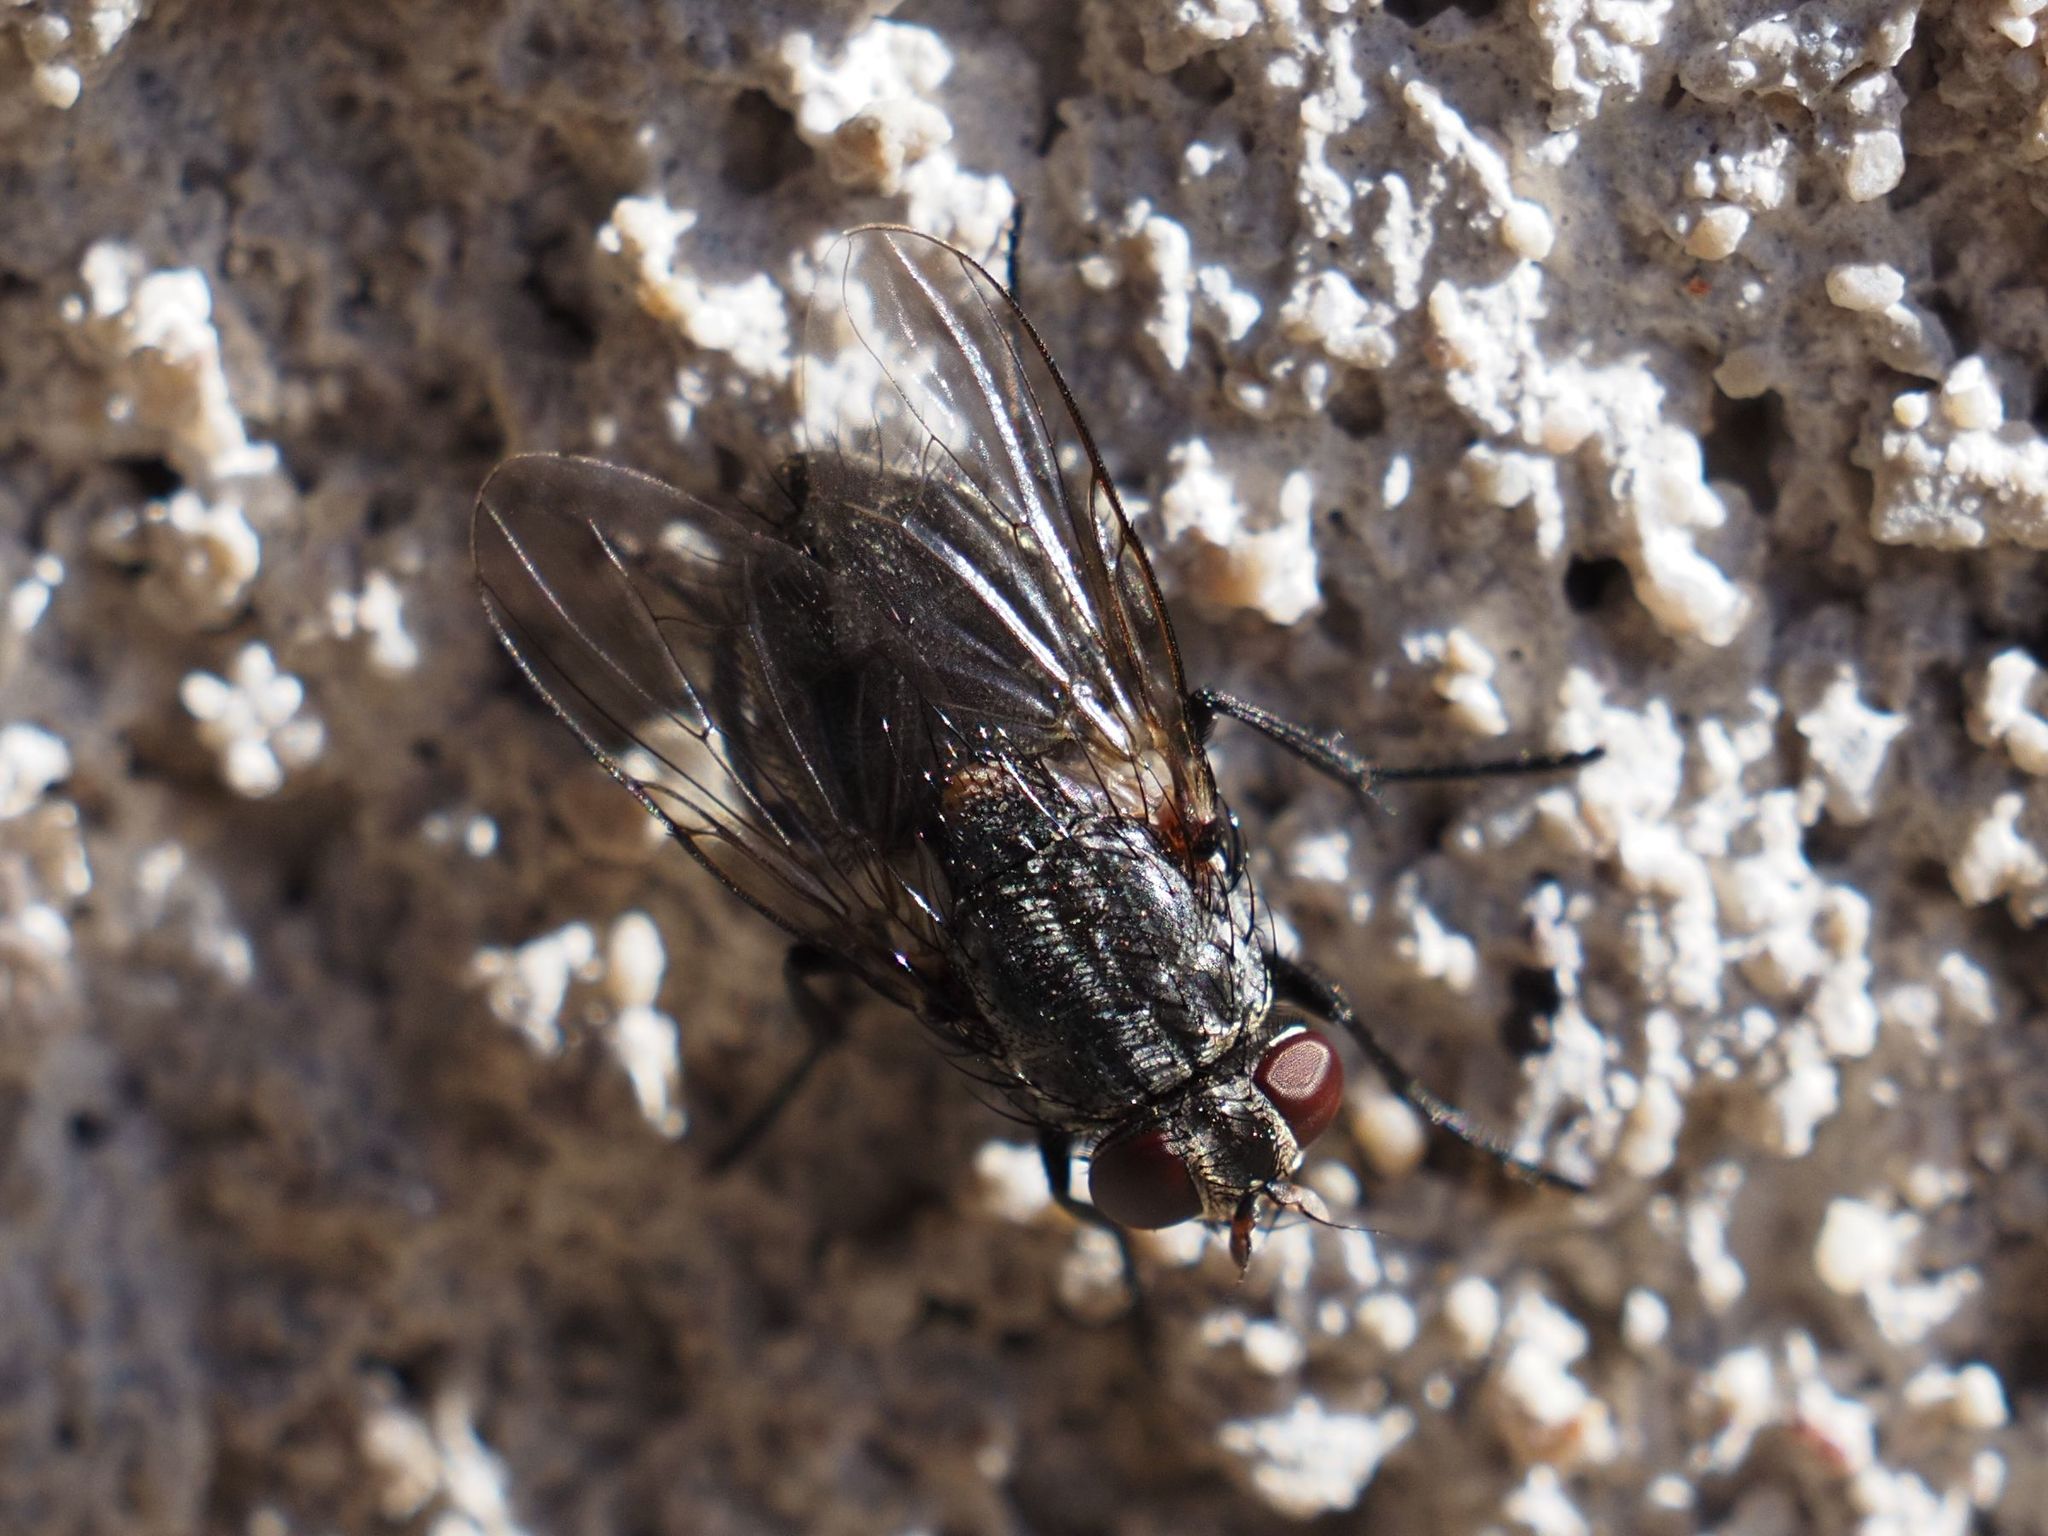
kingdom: Animalia
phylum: Arthropoda
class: Insecta
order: Diptera
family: Muscidae
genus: Muscina
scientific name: Muscina prolapsa
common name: Muscoid fly
